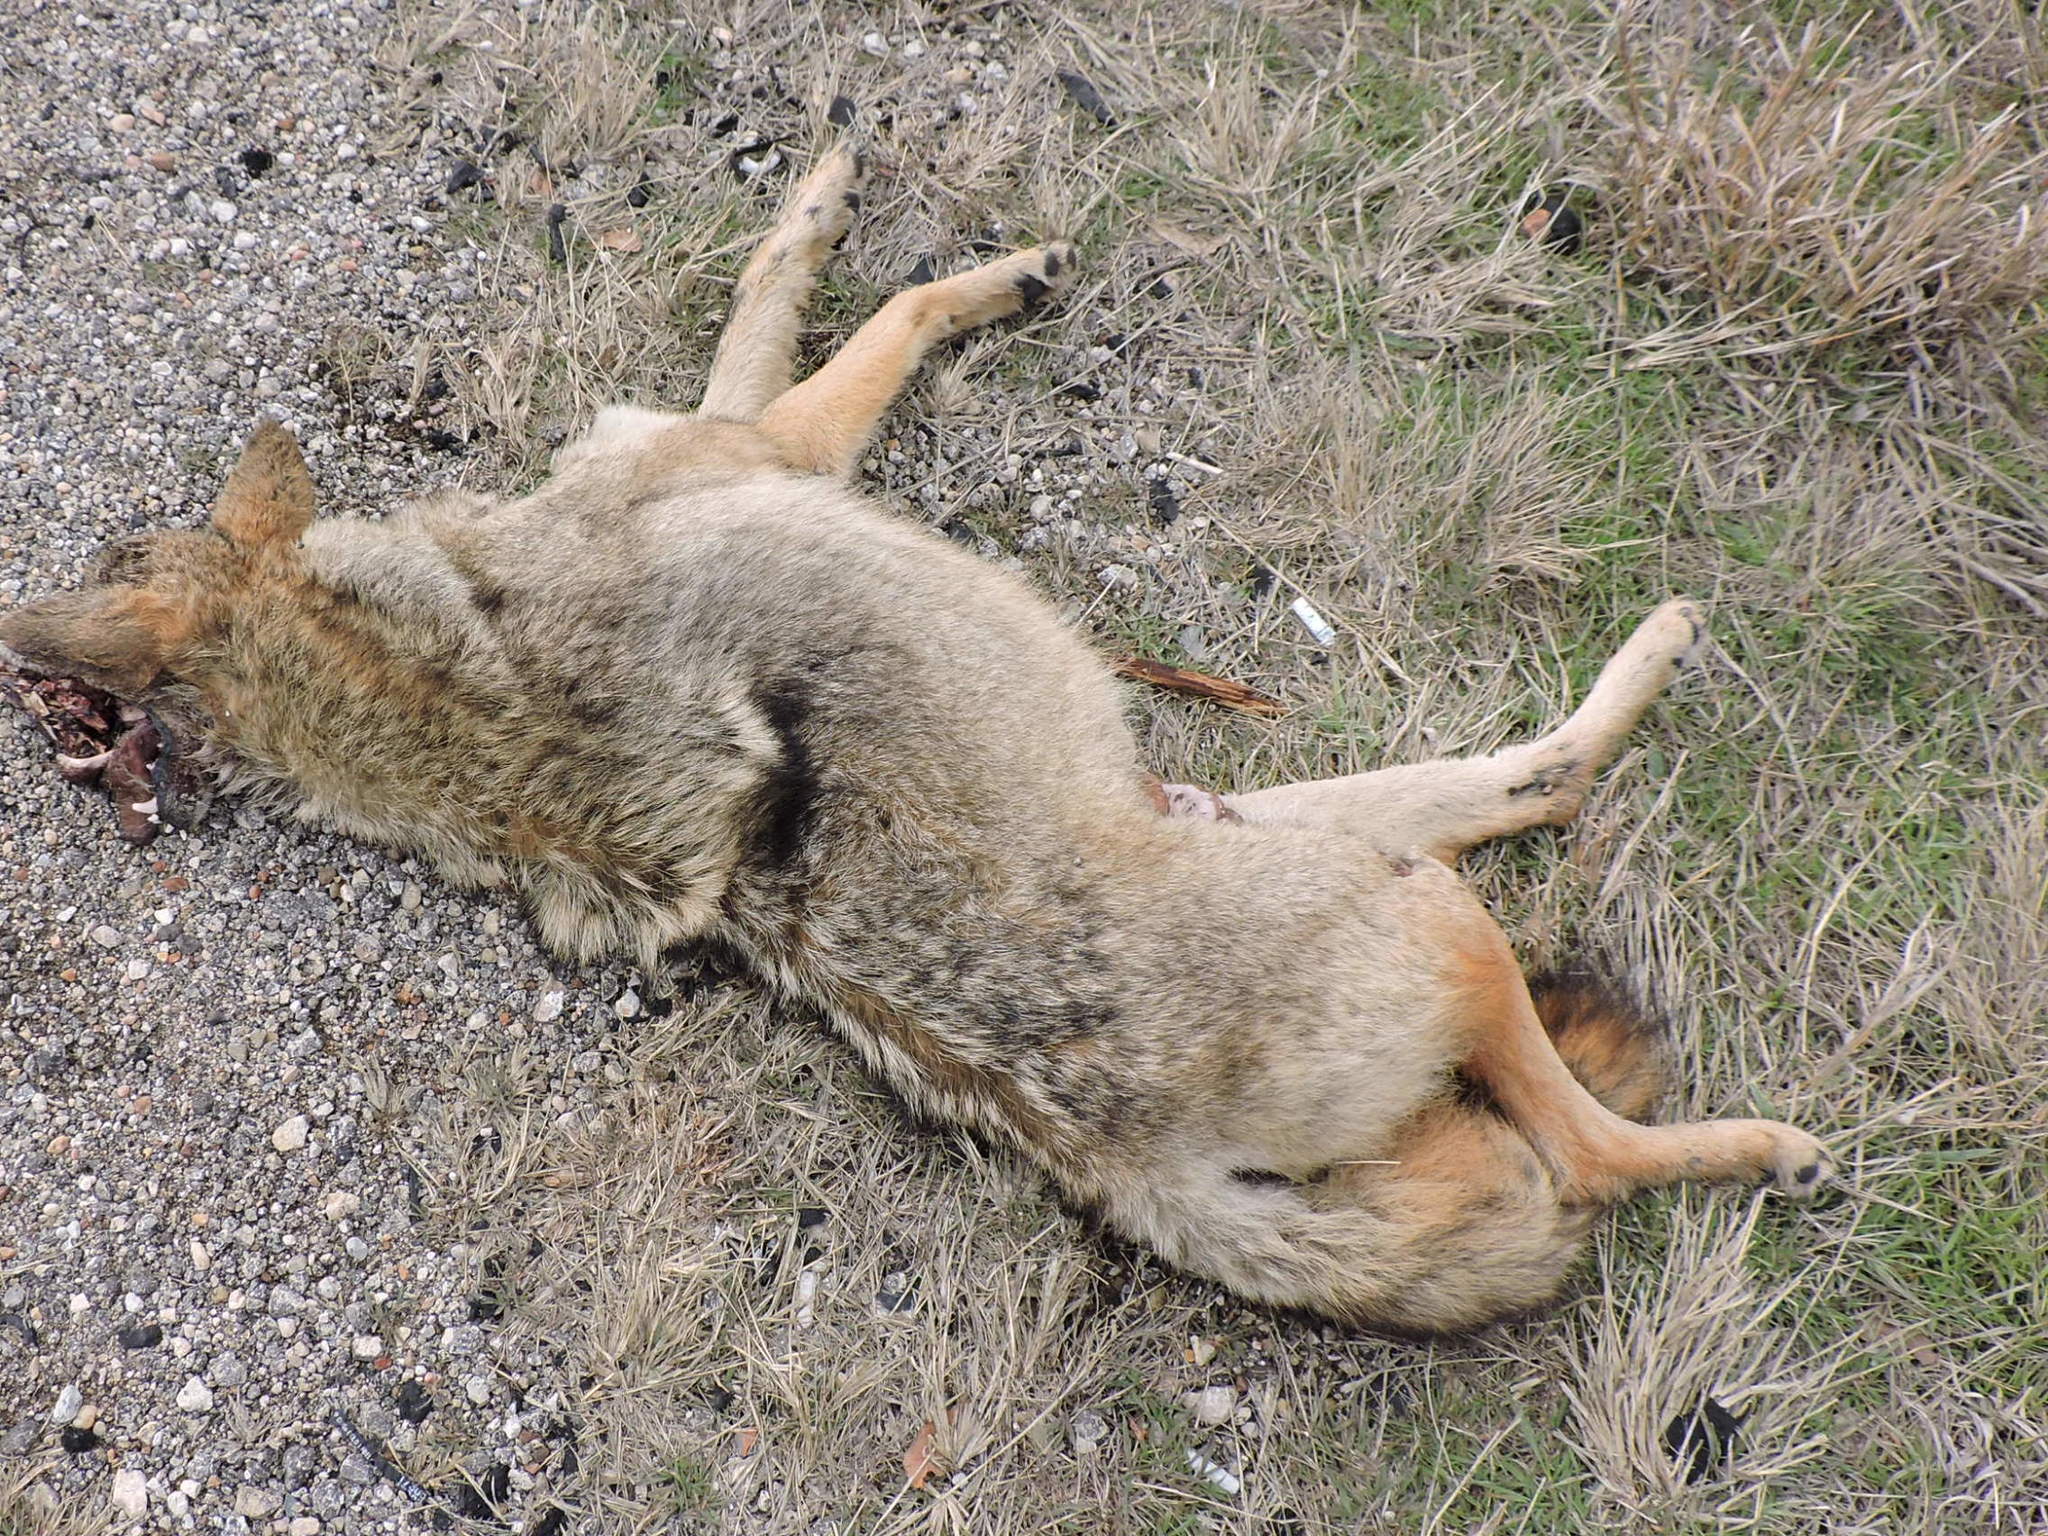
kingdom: Animalia
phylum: Chordata
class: Mammalia
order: Carnivora
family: Canidae
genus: Canis
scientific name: Canis latrans
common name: Coyote
